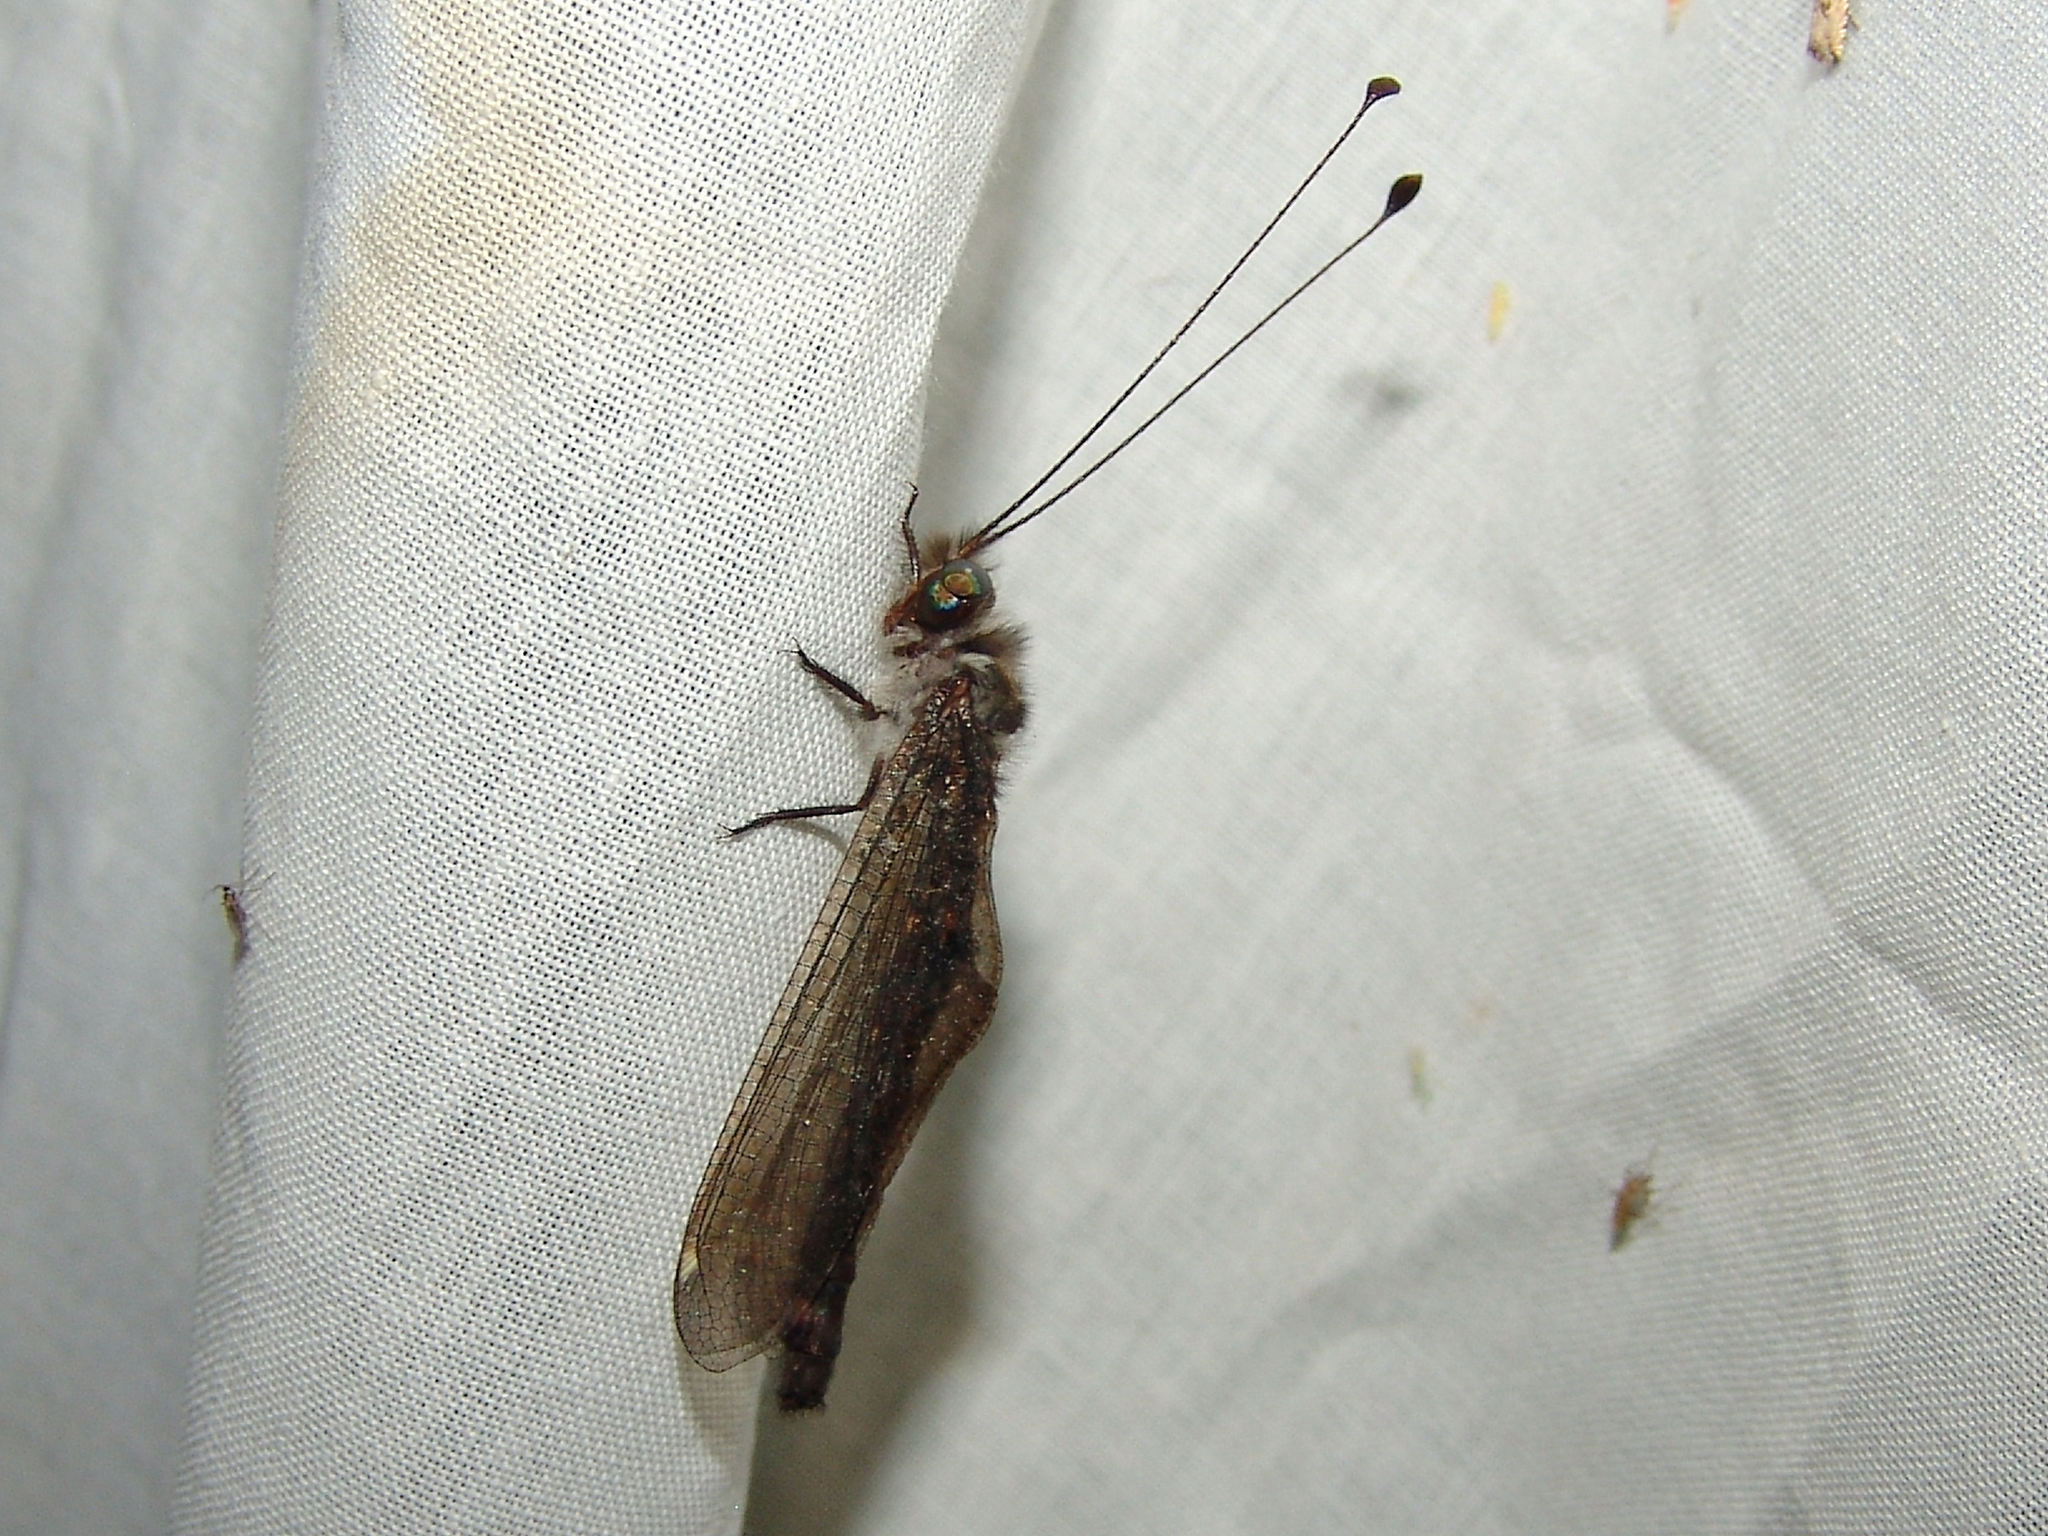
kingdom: Animalia
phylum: Arthropoda
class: Insecta
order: Neuroptera
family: Ascalaphidae
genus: Ululodes
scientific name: Ululodes quadripunctatus
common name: Four-spotted owlfly
